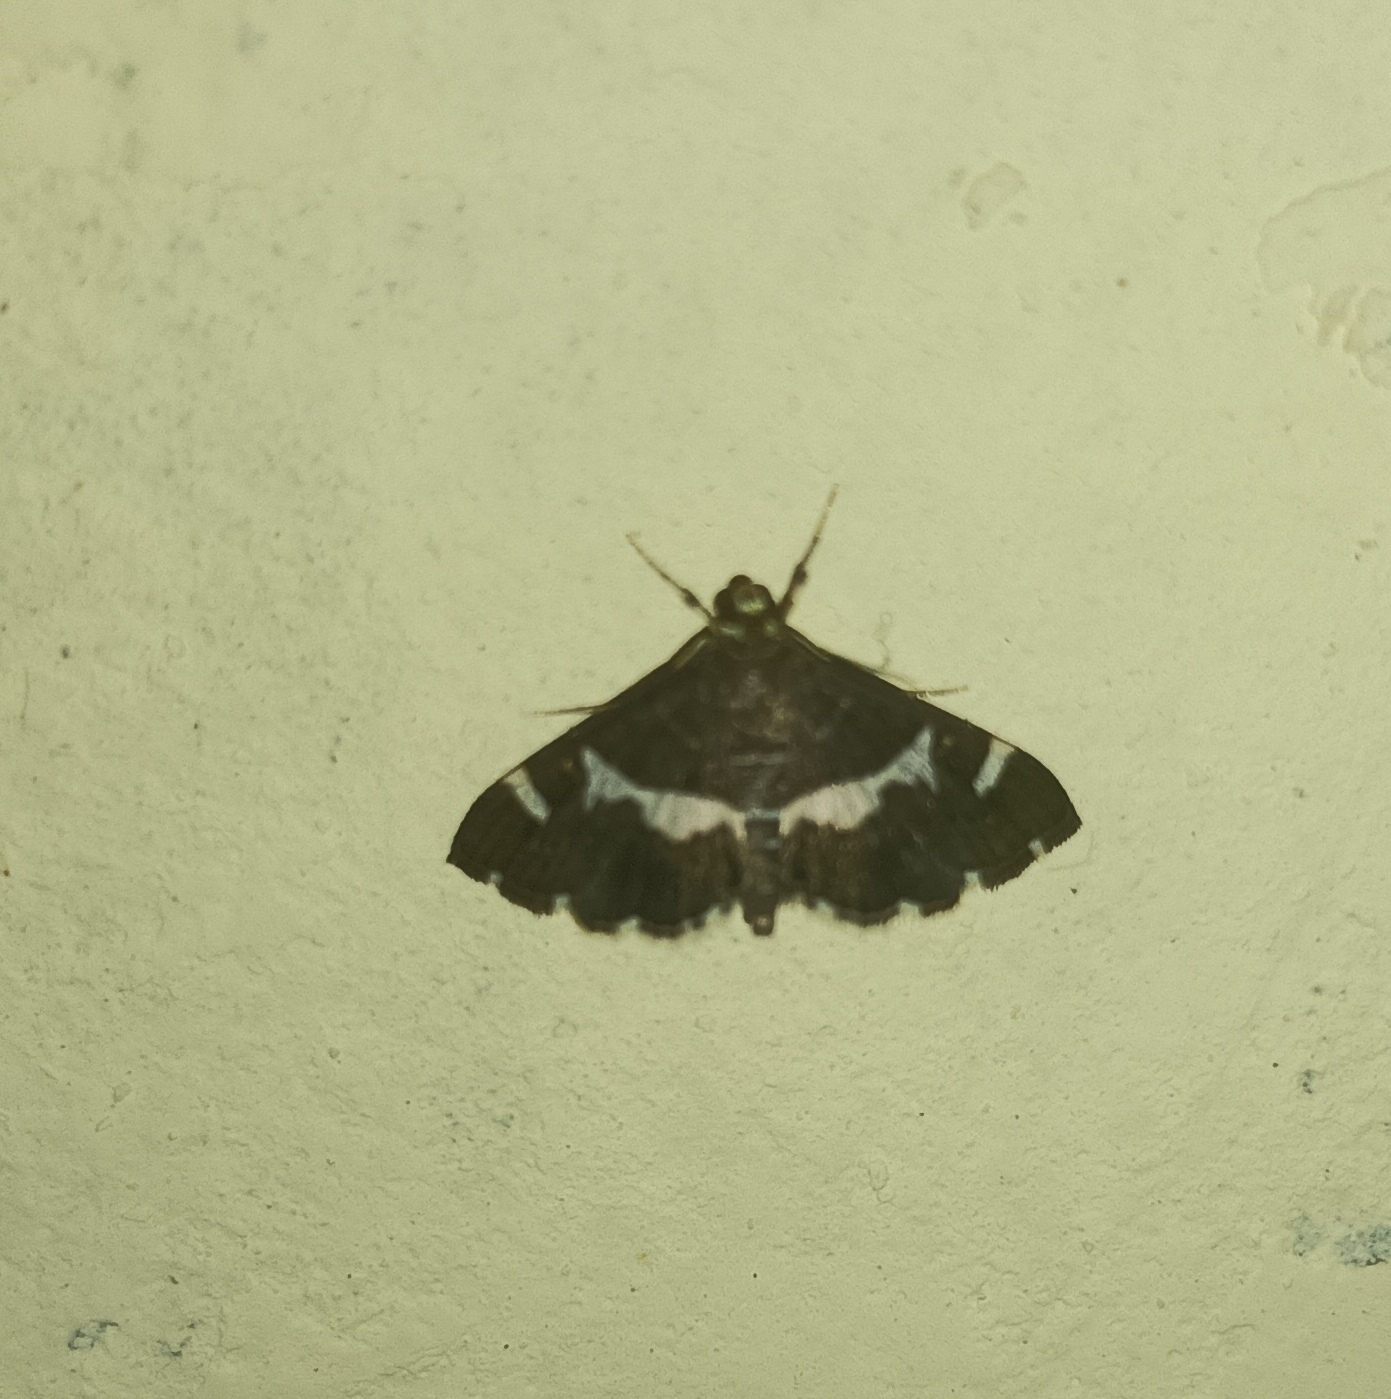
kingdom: Animalia
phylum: Arthropoda
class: Insecta
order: Lepidoptera
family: Crambidae
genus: Spoladea
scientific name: Spoladea recurvalis
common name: Beet webworm moth
